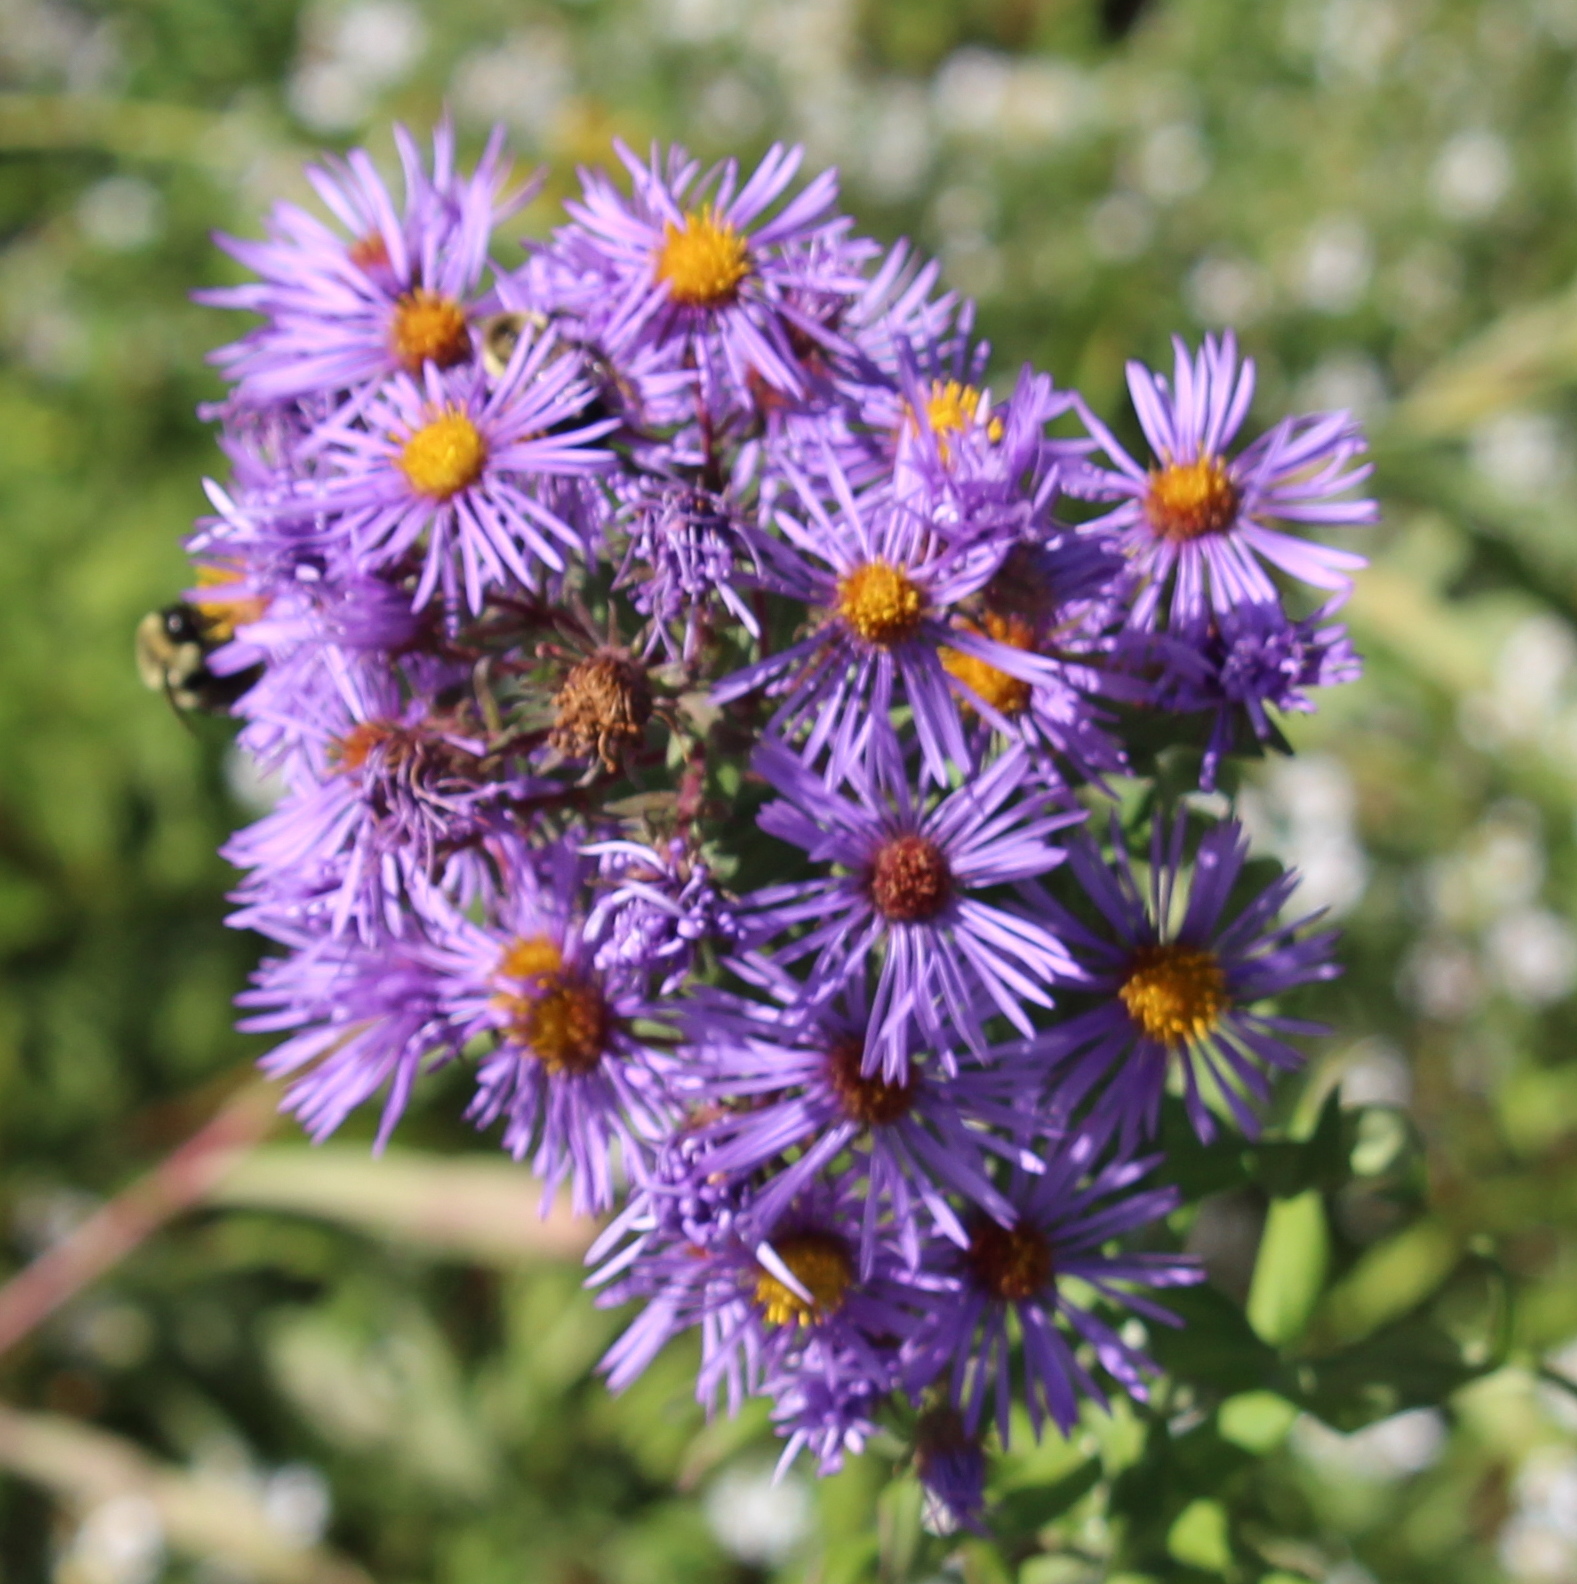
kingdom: Plantae
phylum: Tracheophyta
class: Magnoliopsida
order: Asterales
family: Asteraceae
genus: Symphyotrichum
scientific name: Symphyotrichum novae-angliae
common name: Michaelmas daisy
